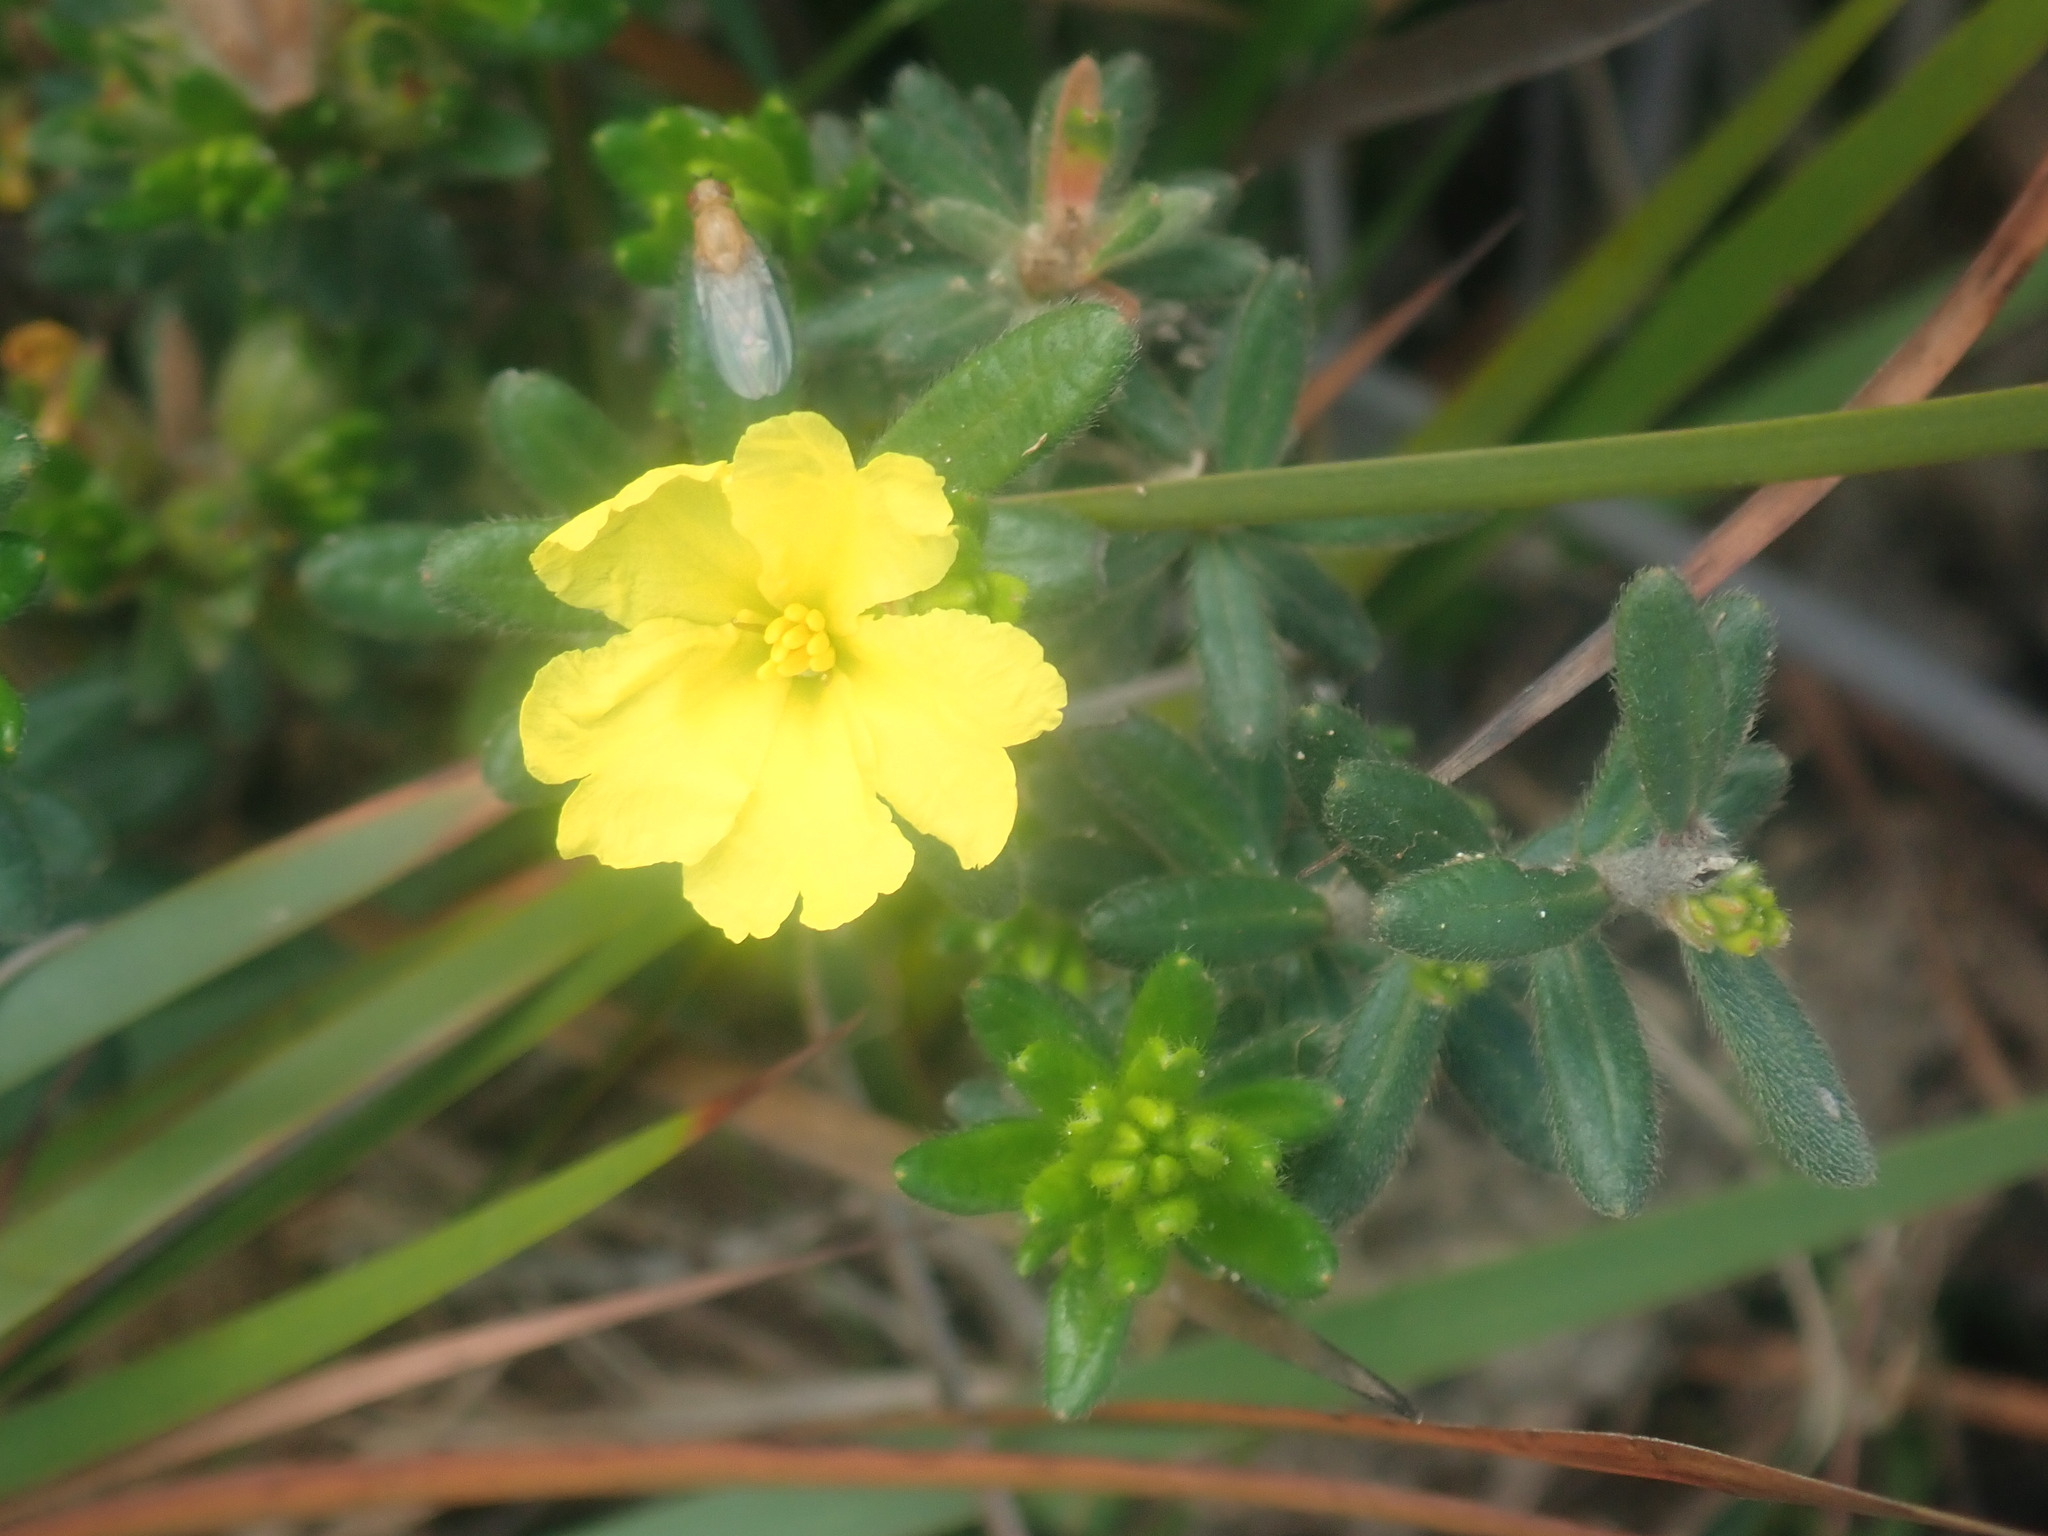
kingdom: Plantae
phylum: Tracheophyta
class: Magnoliopsida
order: Dilleniales
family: Dilleniaceae
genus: Hibbertia
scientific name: Hibbertia sericea
